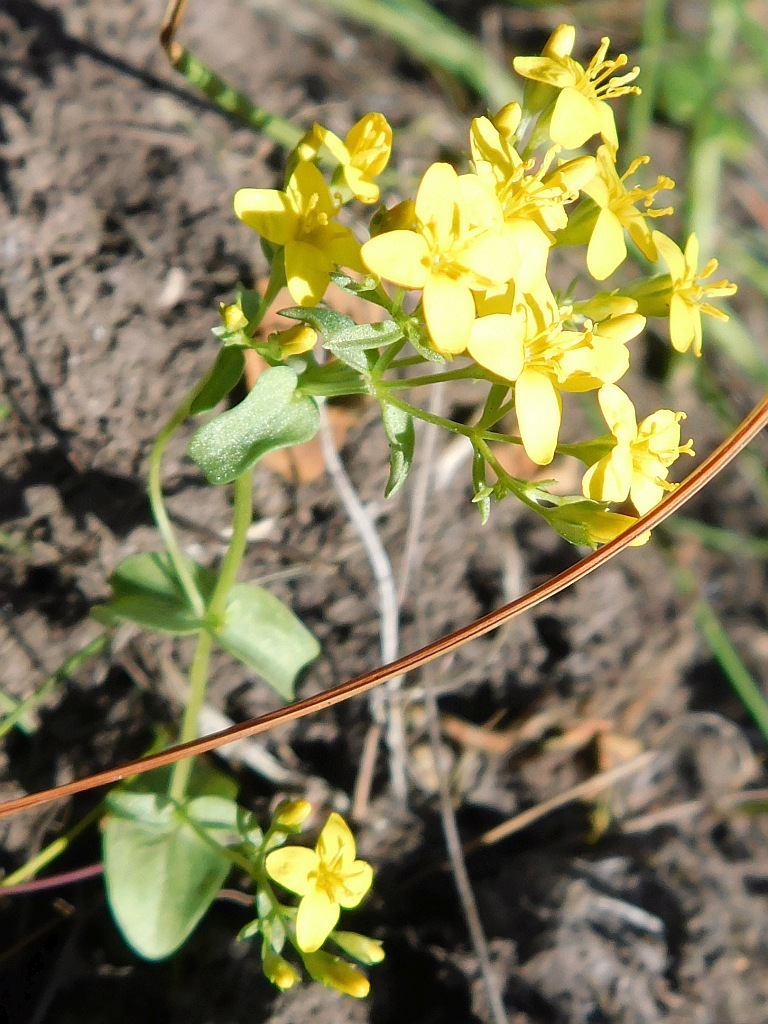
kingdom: Plantae
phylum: Tracheophyta
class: Magnoliopsida
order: Gentianales
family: Gentianaceae
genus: Sebaea
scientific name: Sebaea aurea
